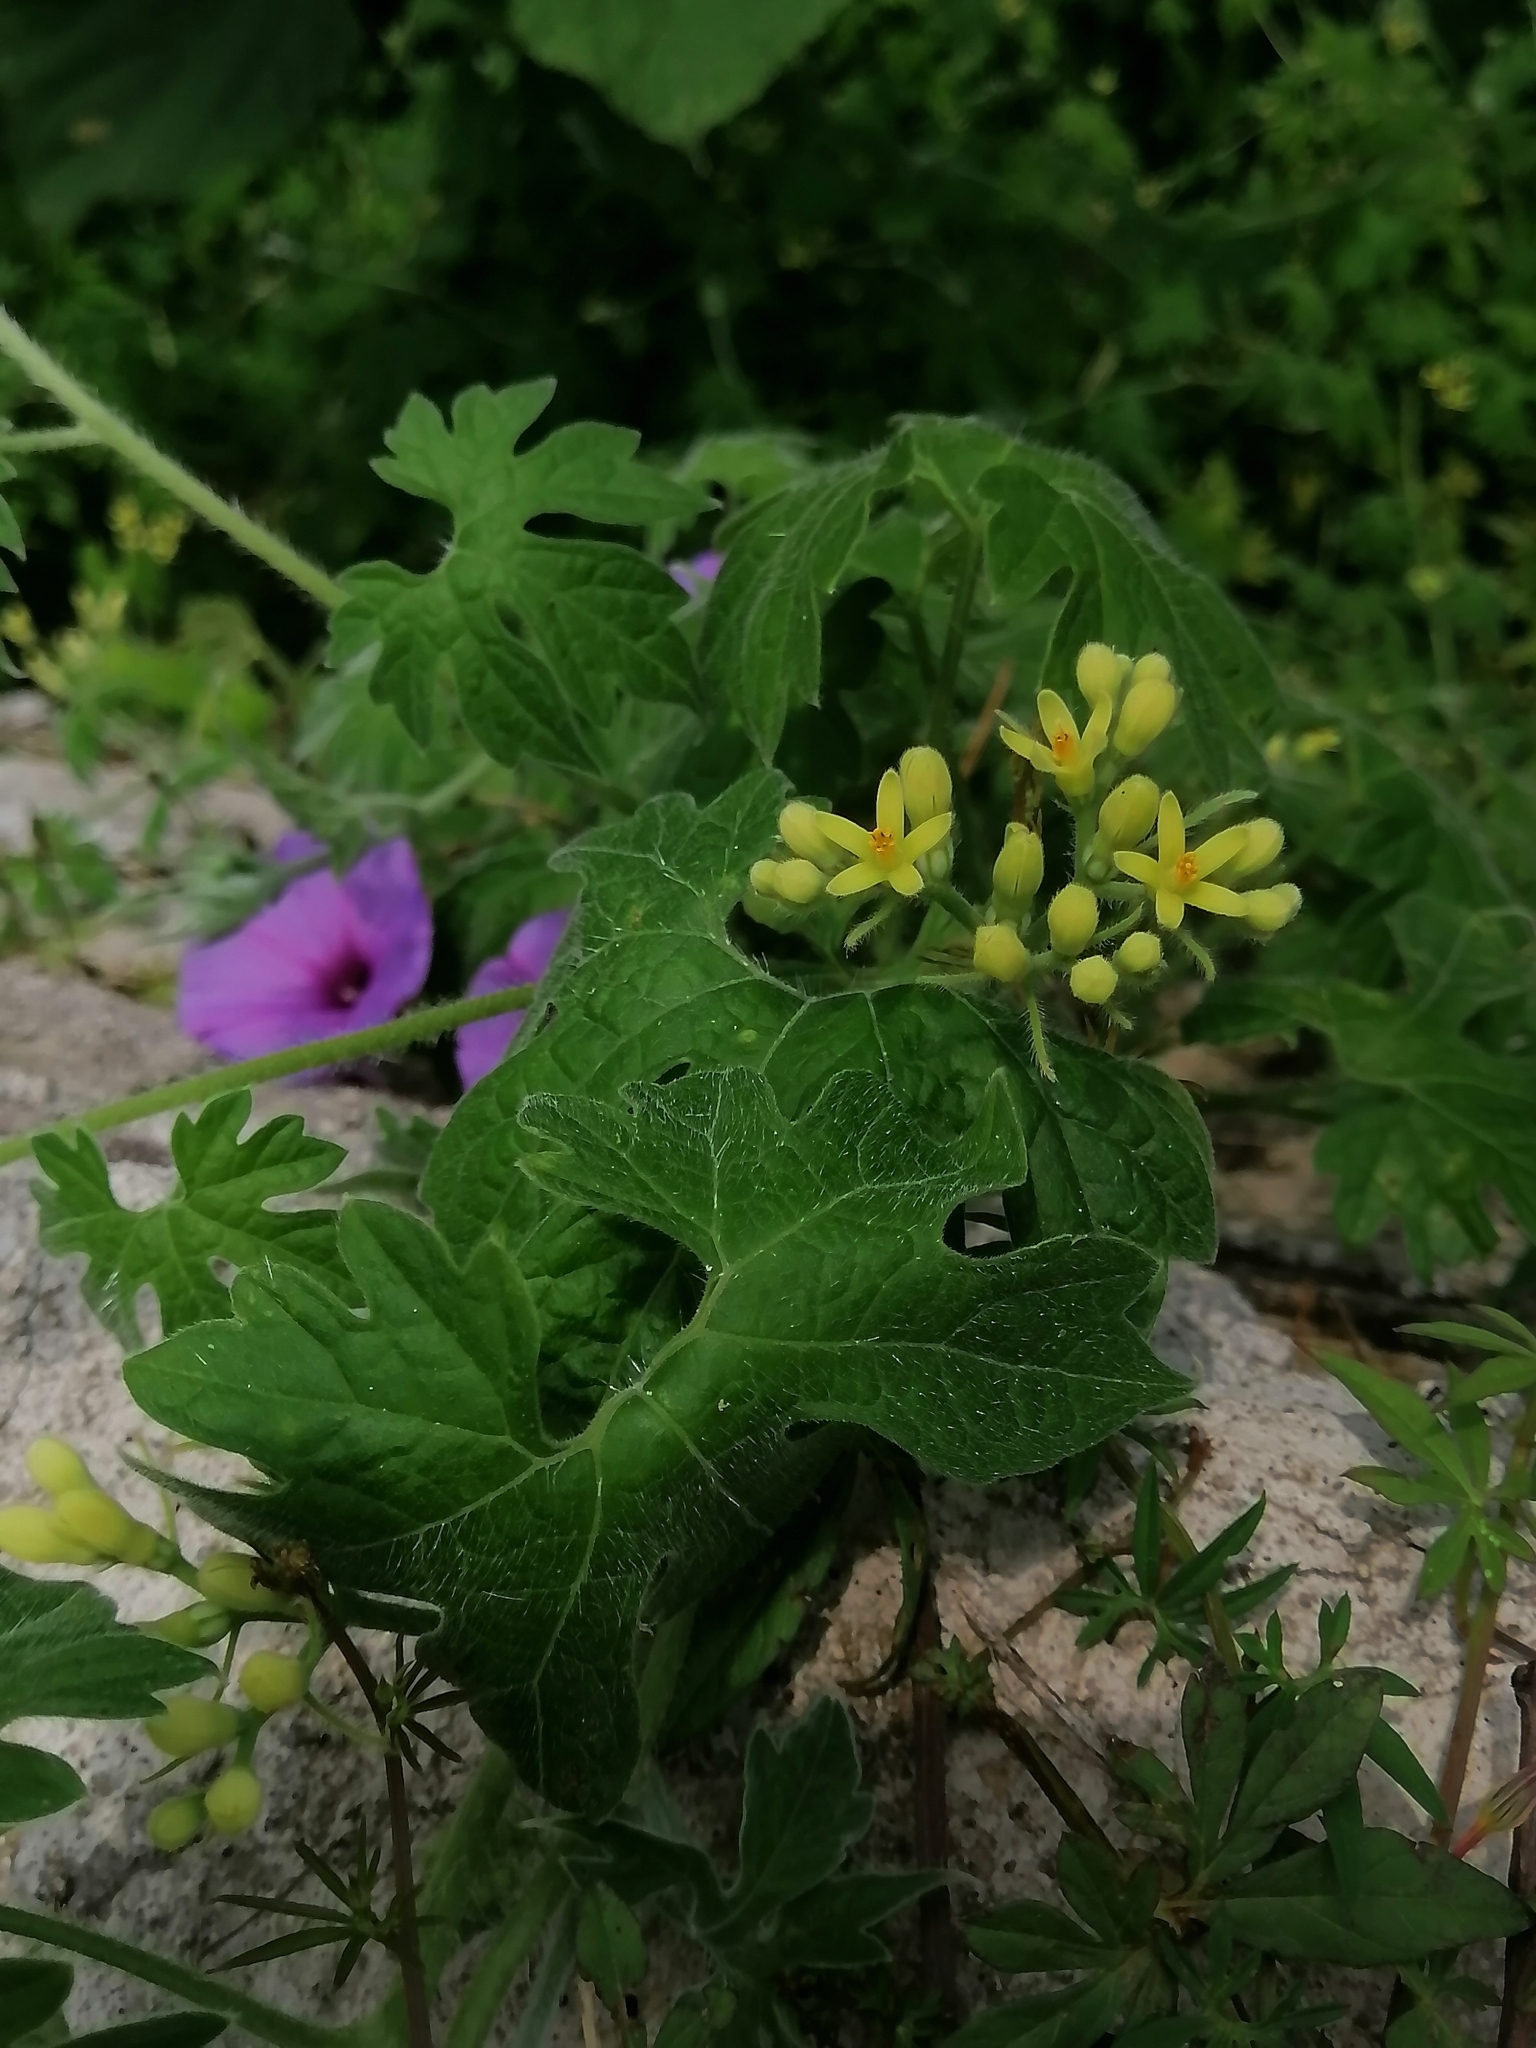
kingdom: Plantae
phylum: Tracheophyta
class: Magnoliopsida
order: Cornales
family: Loasaceae
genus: Gronovia
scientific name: Gronovia scandens
